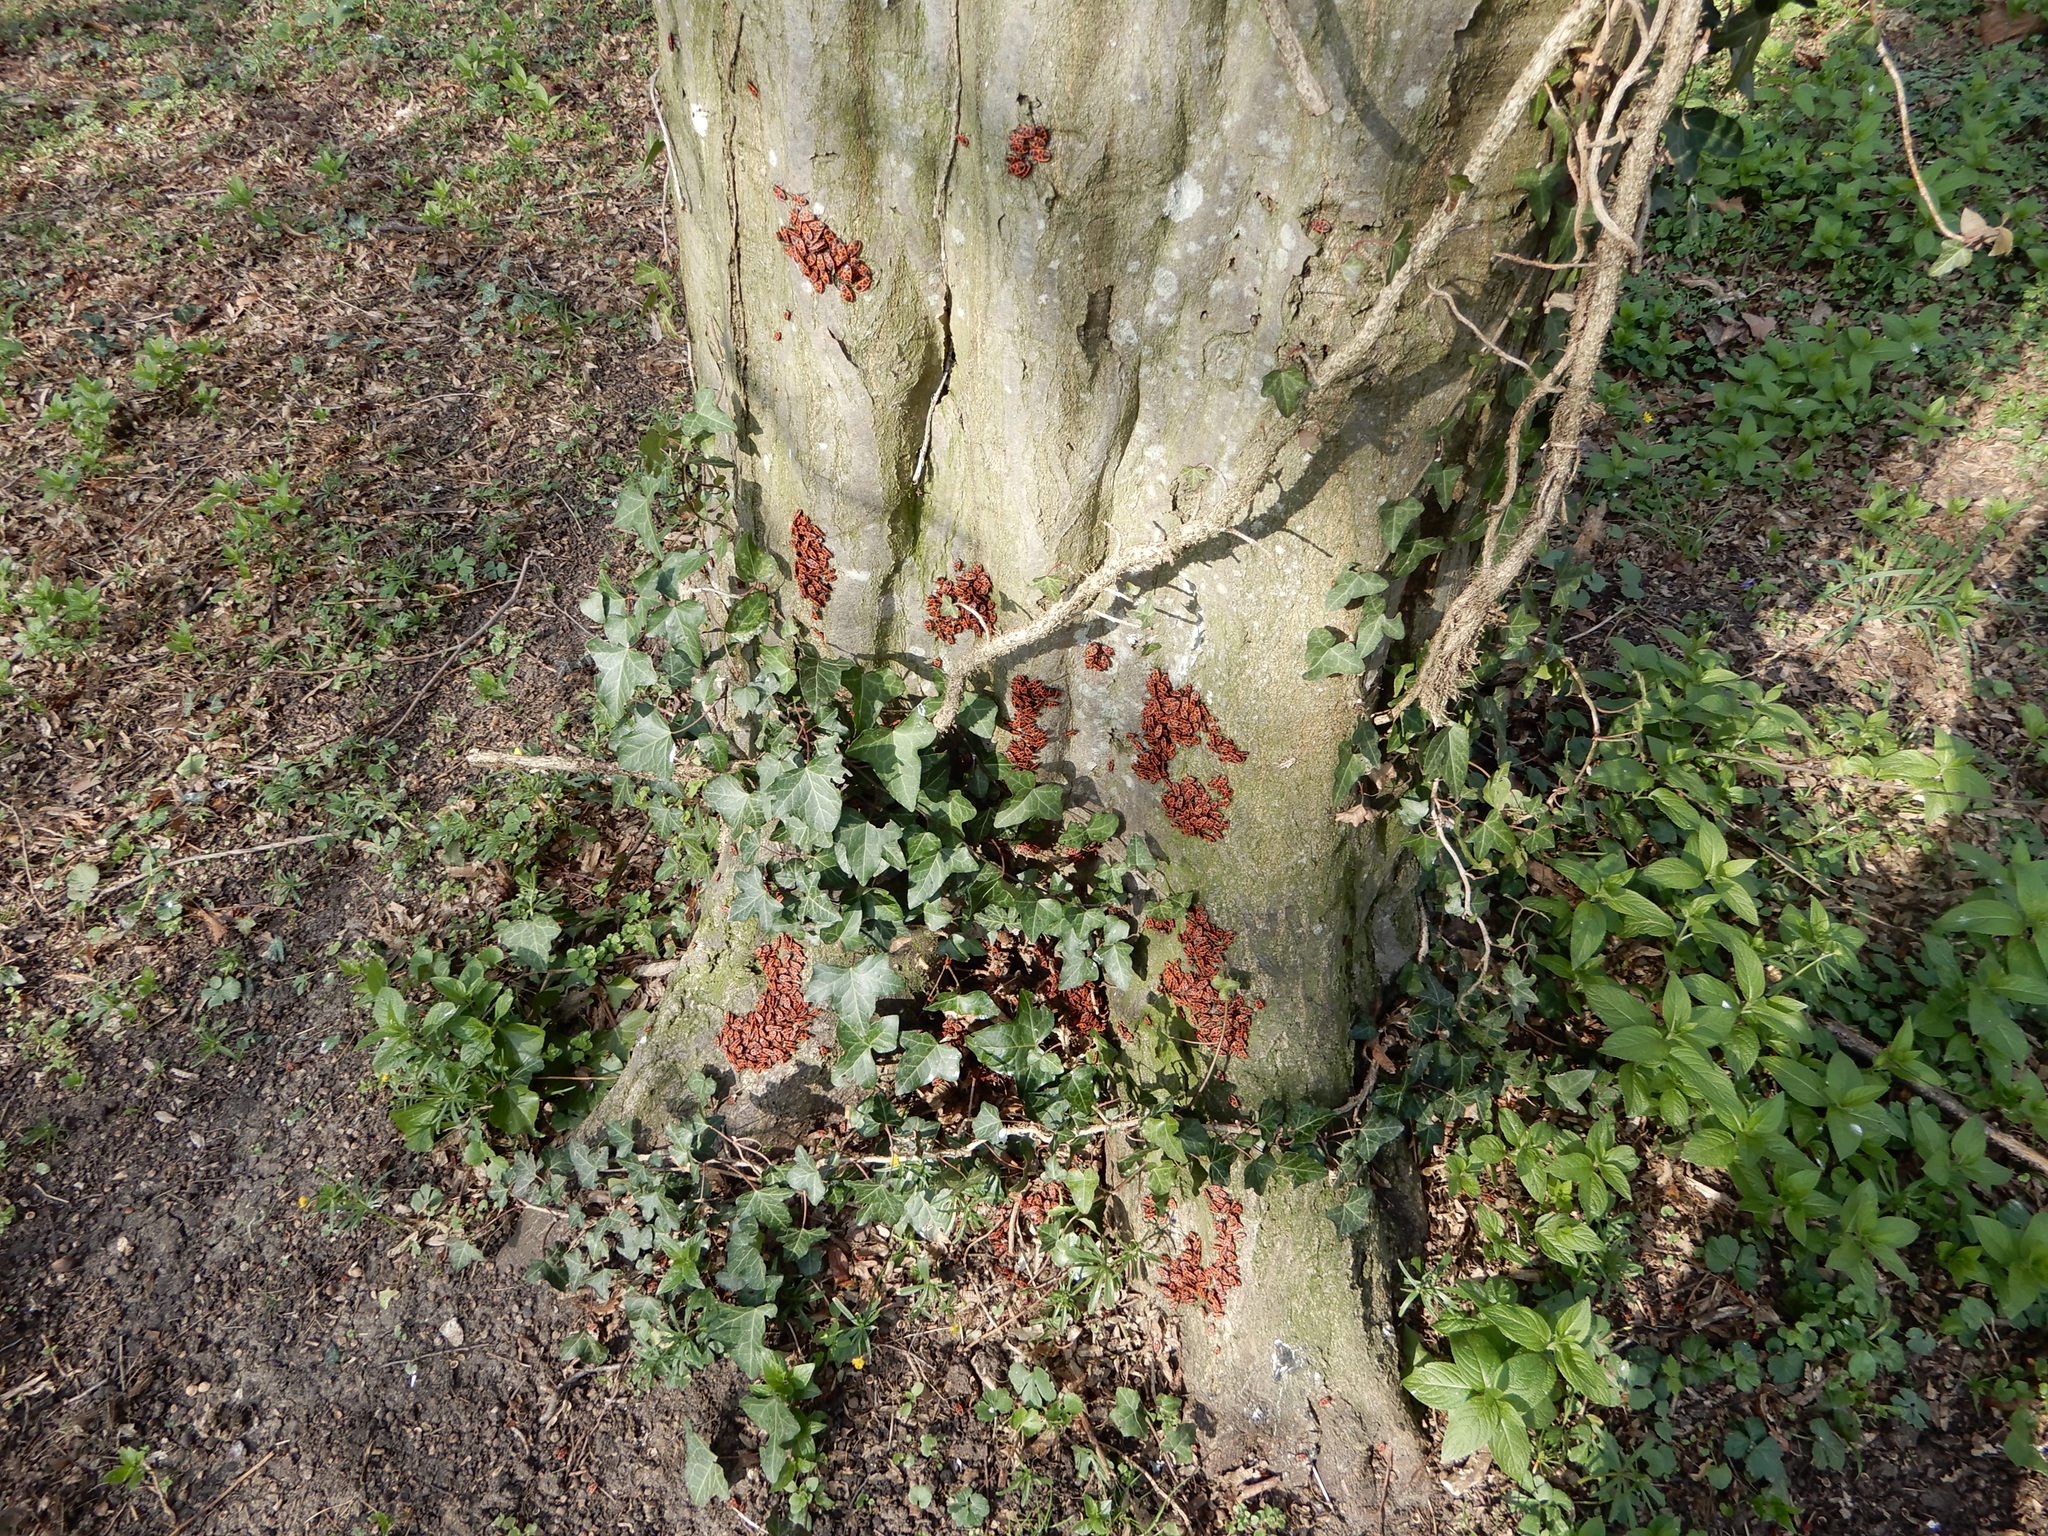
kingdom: Animalia
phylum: Arthropoda
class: Insecta
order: Hemiptera
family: Pyrrhocoridae
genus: Pyrrhocoris
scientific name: Pyrrhocoris apterus
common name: Firebug
